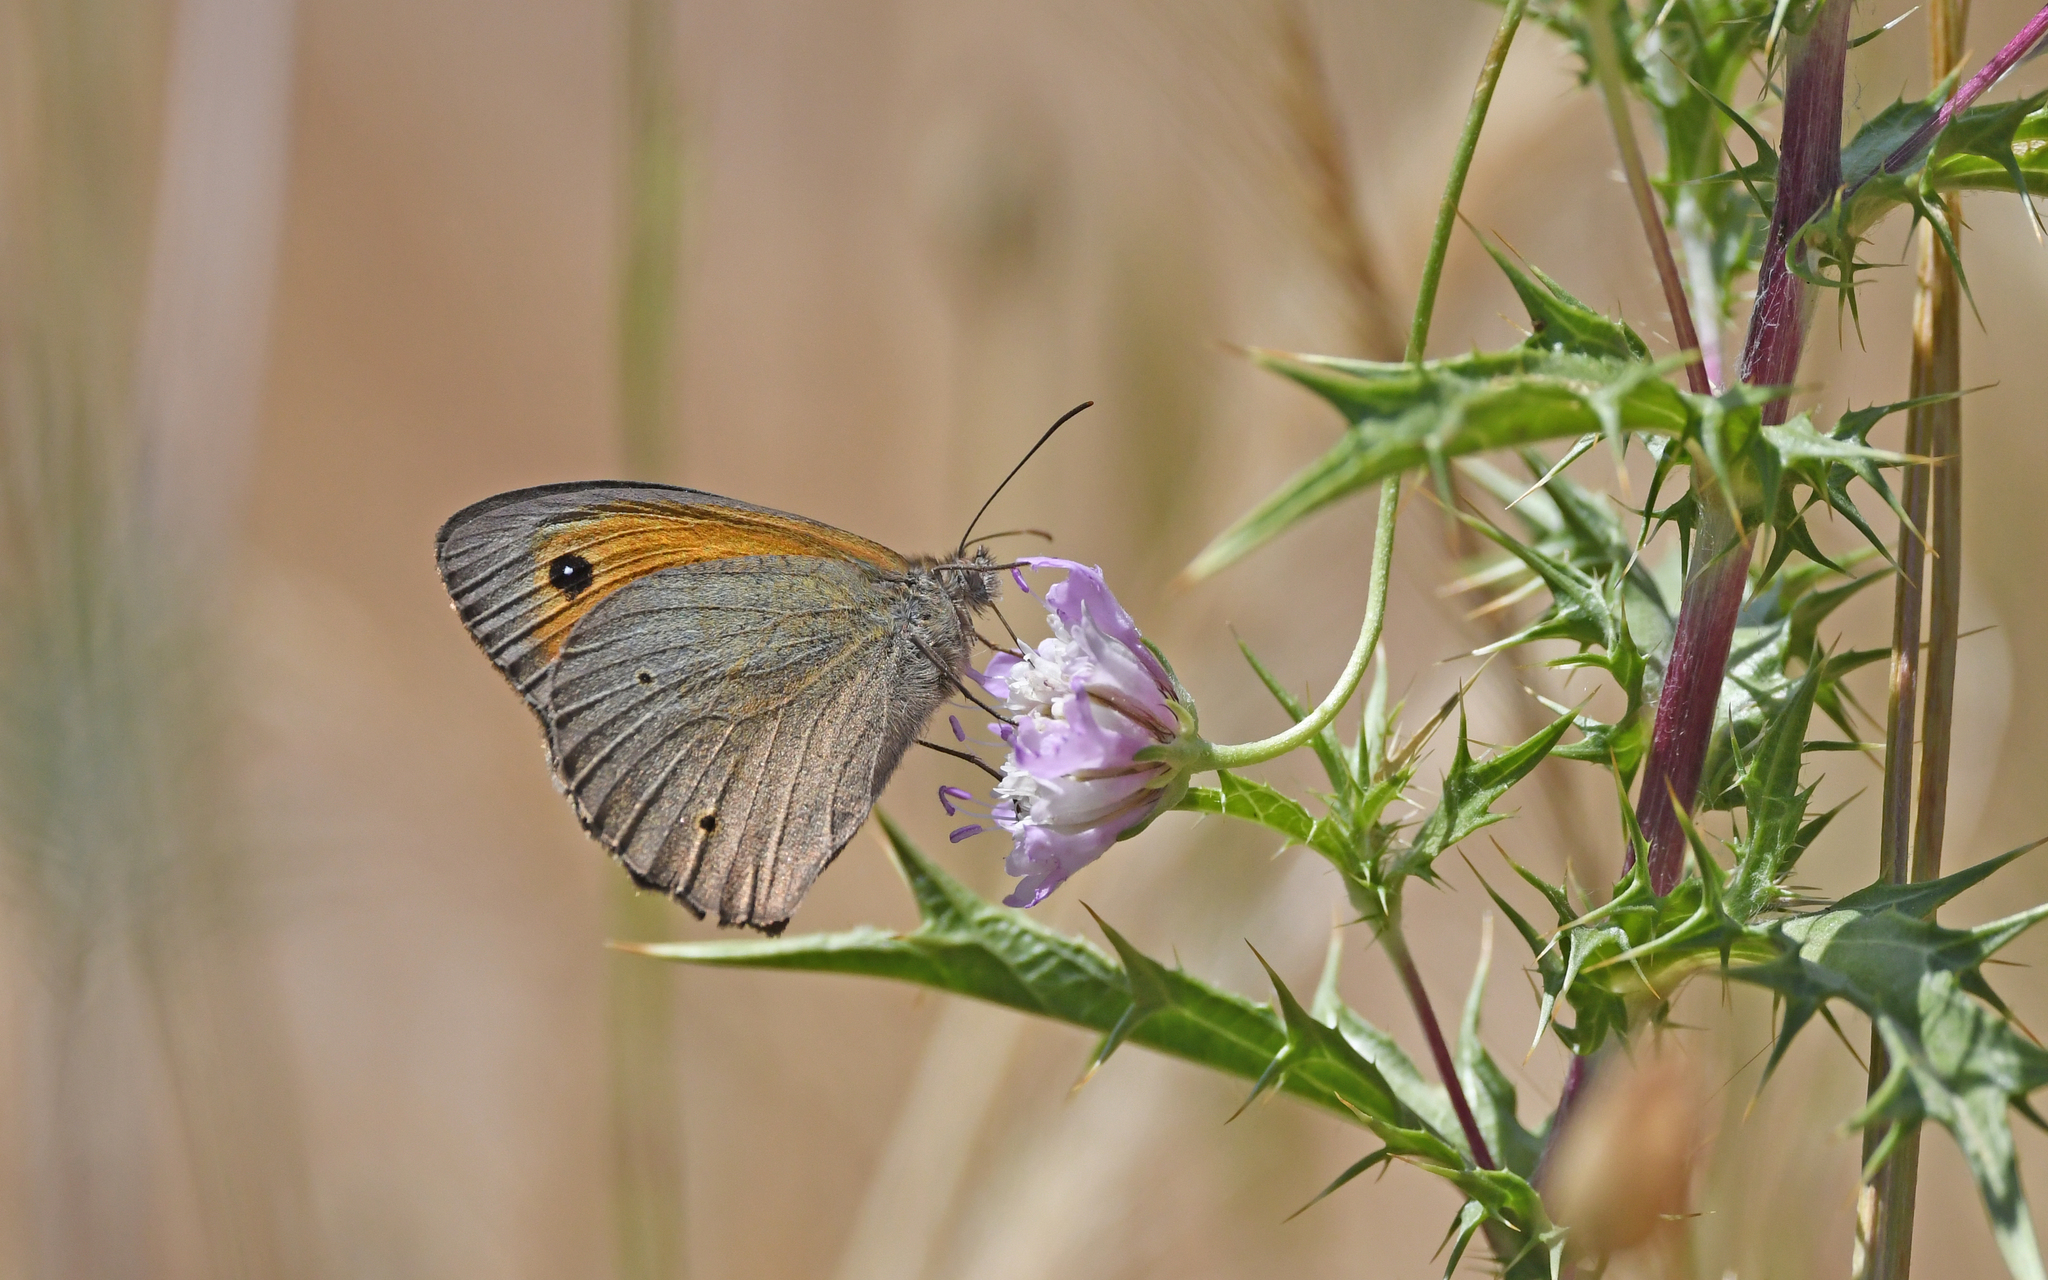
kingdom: Animalia
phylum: Arthropoda
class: Insecta
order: Lepidoptera
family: Nymphalidae
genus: Maniola
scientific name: Maniola jurtina
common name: Meadow brown
